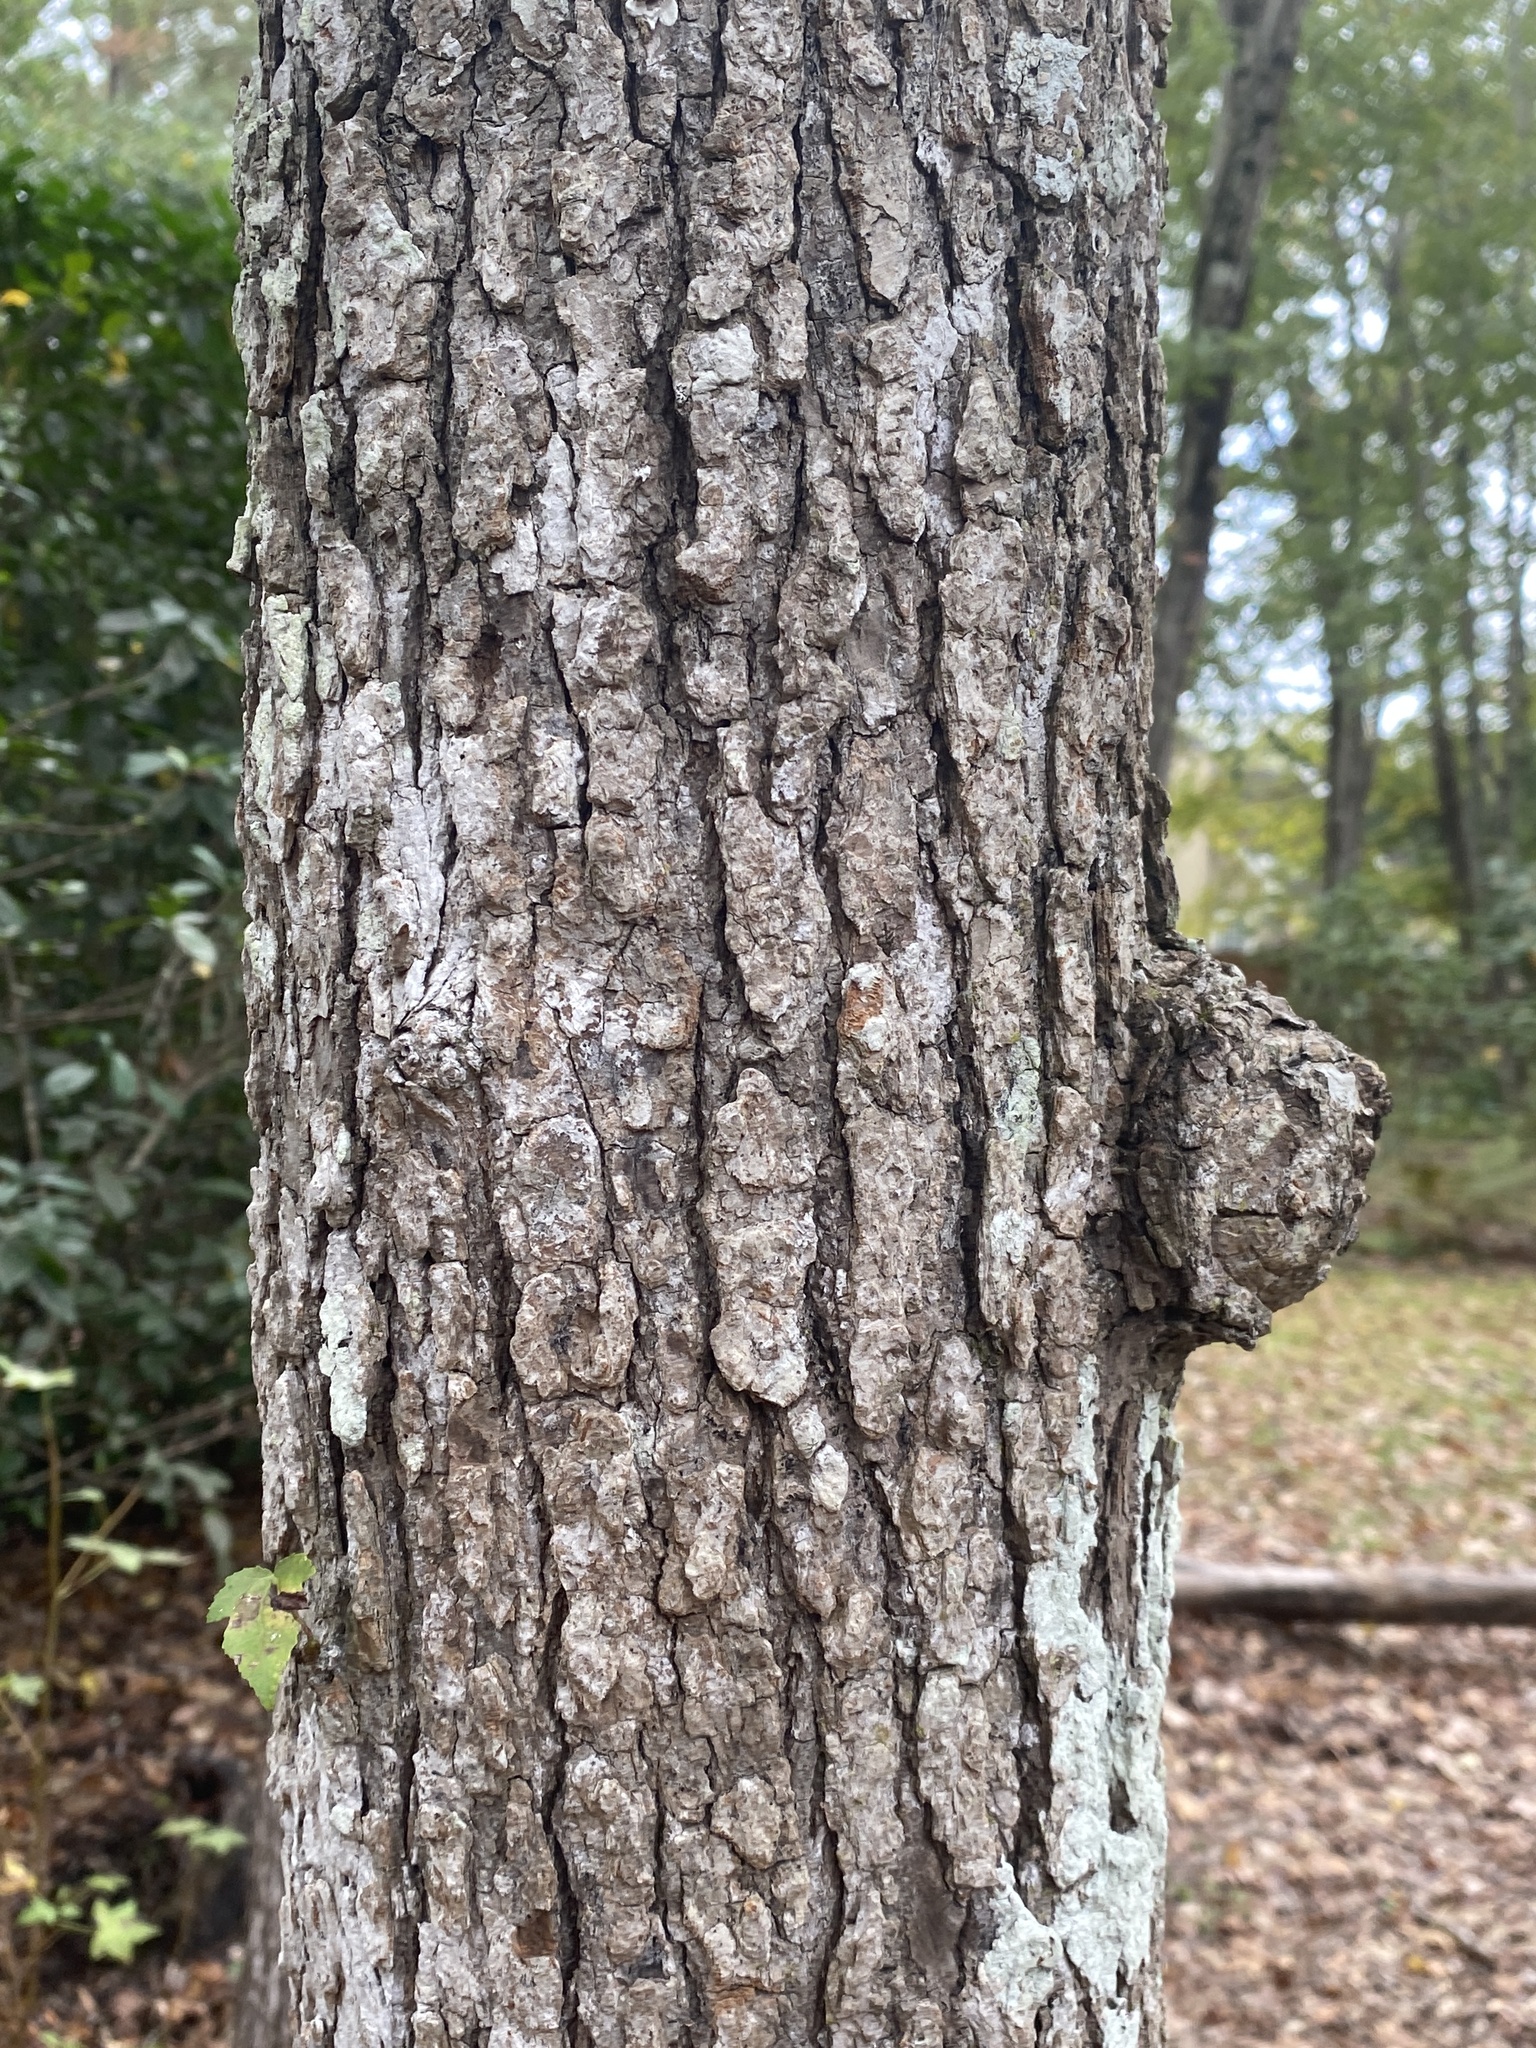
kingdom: Bacteria
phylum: Proteobacteria
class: Alphaproteobacteria
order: Rhizobiales
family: Rhizobiaceae
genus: Rhizobium
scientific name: Rhizobium Agrobacterium radiobacter
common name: Bacterial crown gall
